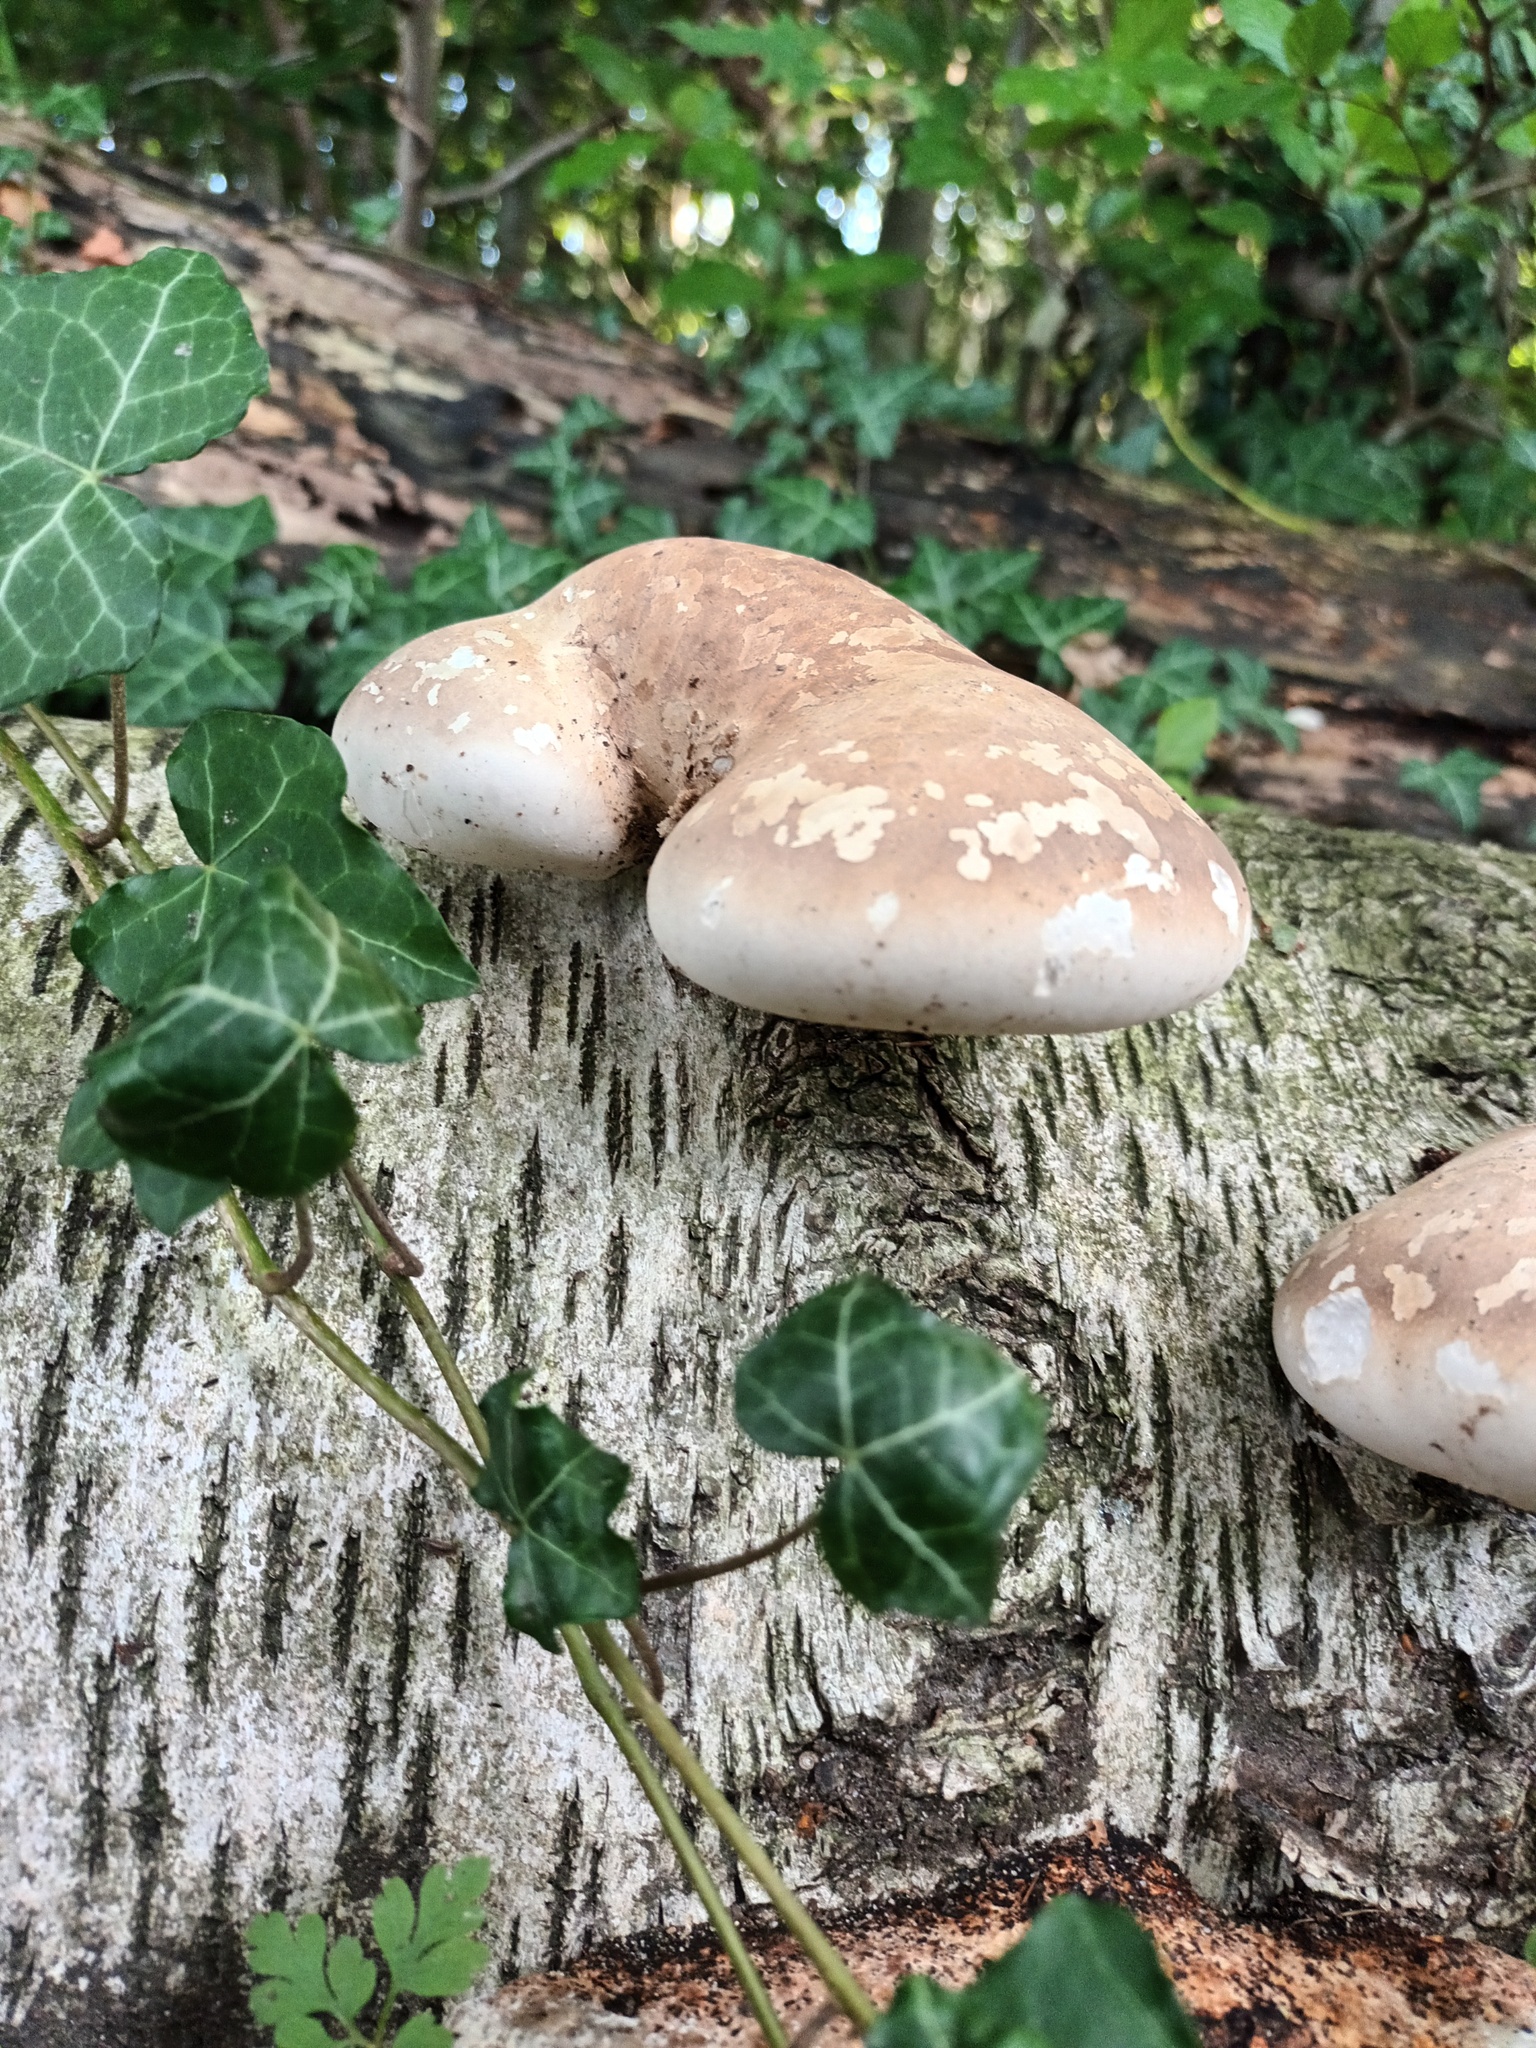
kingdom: Fungi
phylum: Basidiomycota
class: Agaricomycetes
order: Polyporales
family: Fomitopsidaceae
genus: Fomitopsis
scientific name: Fomitopsis betulina
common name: Birch polypore
